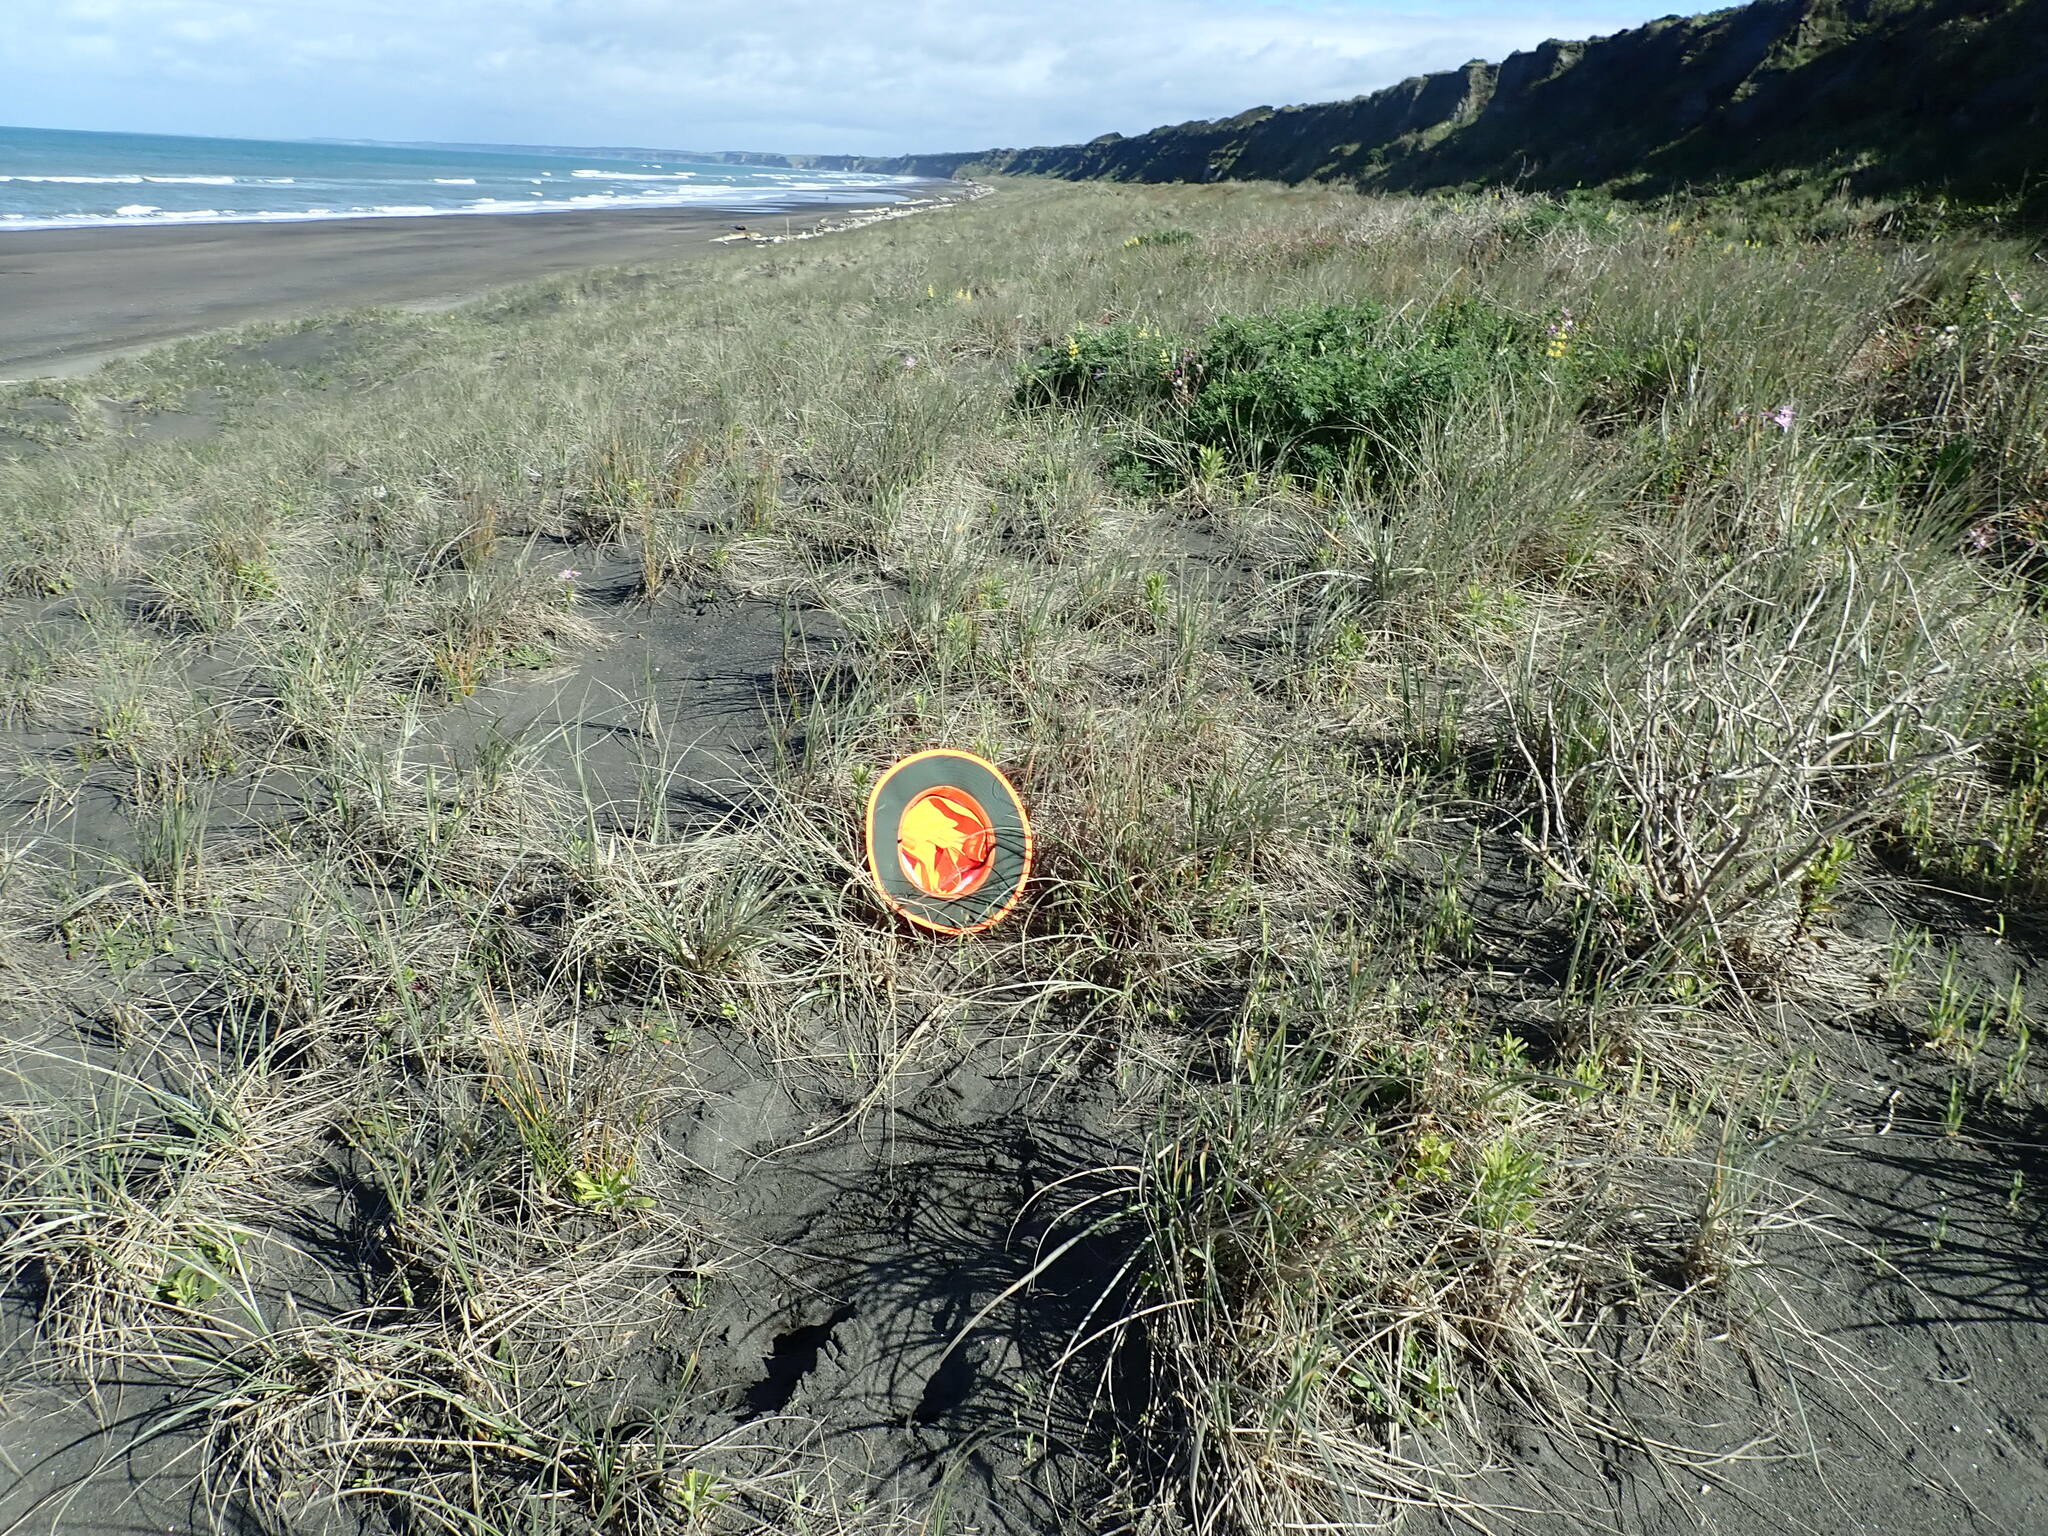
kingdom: Plantae
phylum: Tracheophyta
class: Liliopsida
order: Poales
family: Poaceae
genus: Lagurus
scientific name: Lagurus ovatus
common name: Hare's-tail
